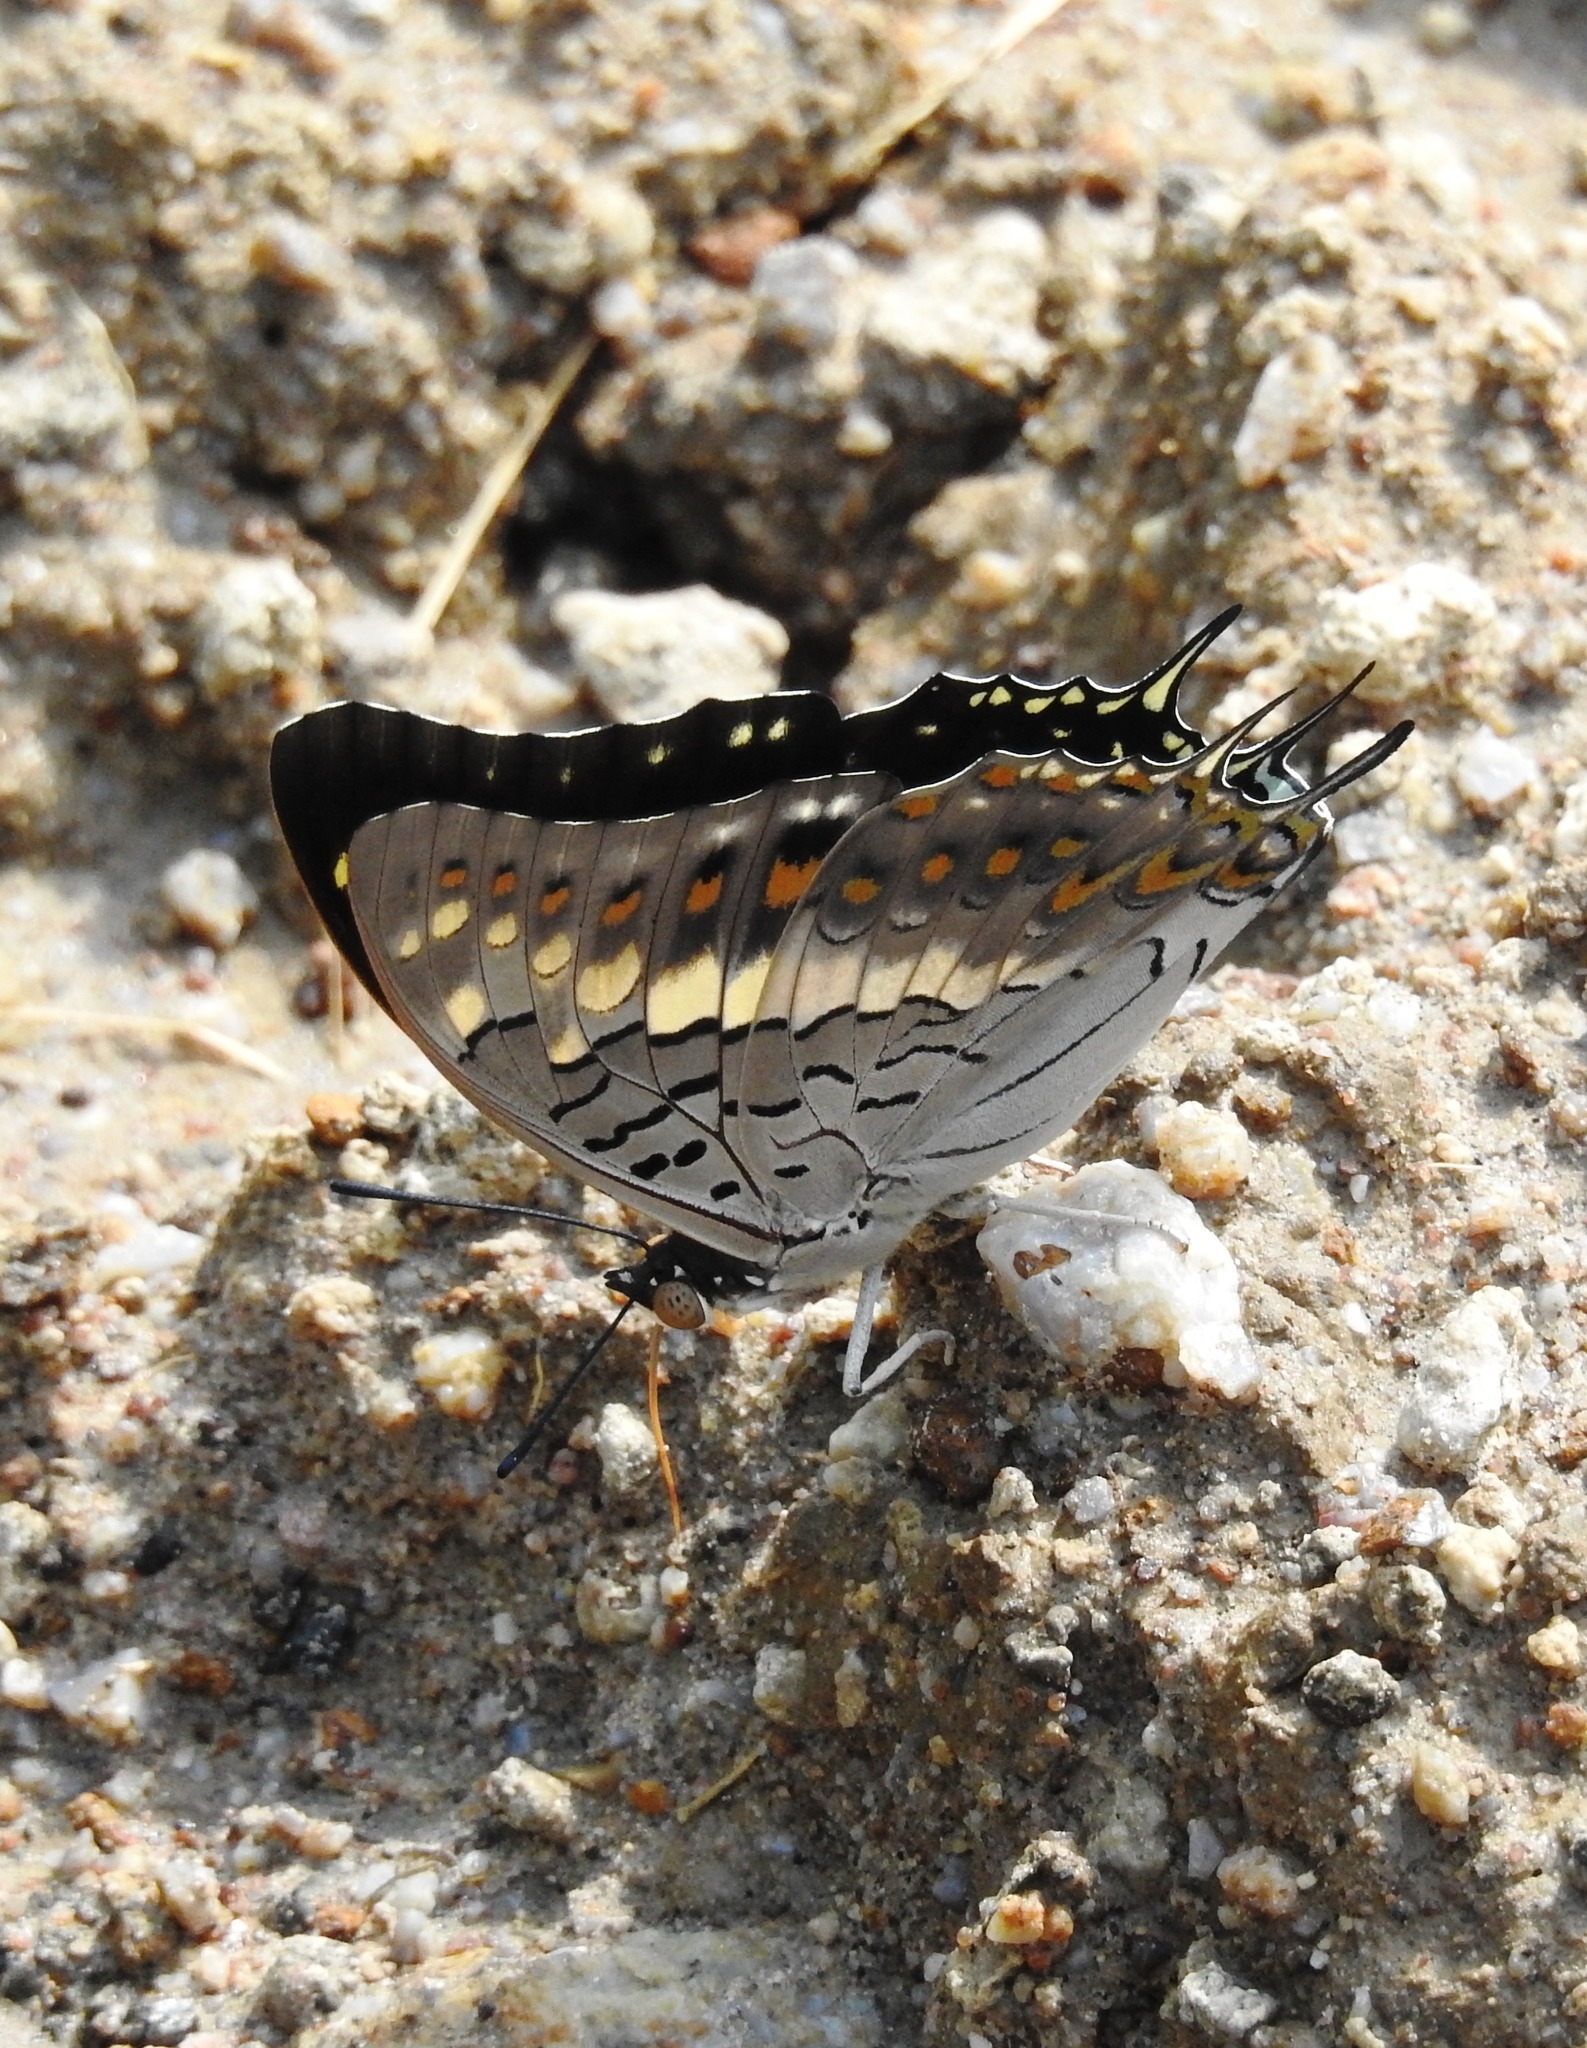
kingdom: Animalia
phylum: Arthropoda
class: Insecta
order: Lepidoptera
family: Nymphalidae
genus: Charaxes
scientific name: Charaxes solon
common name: Black rajah
